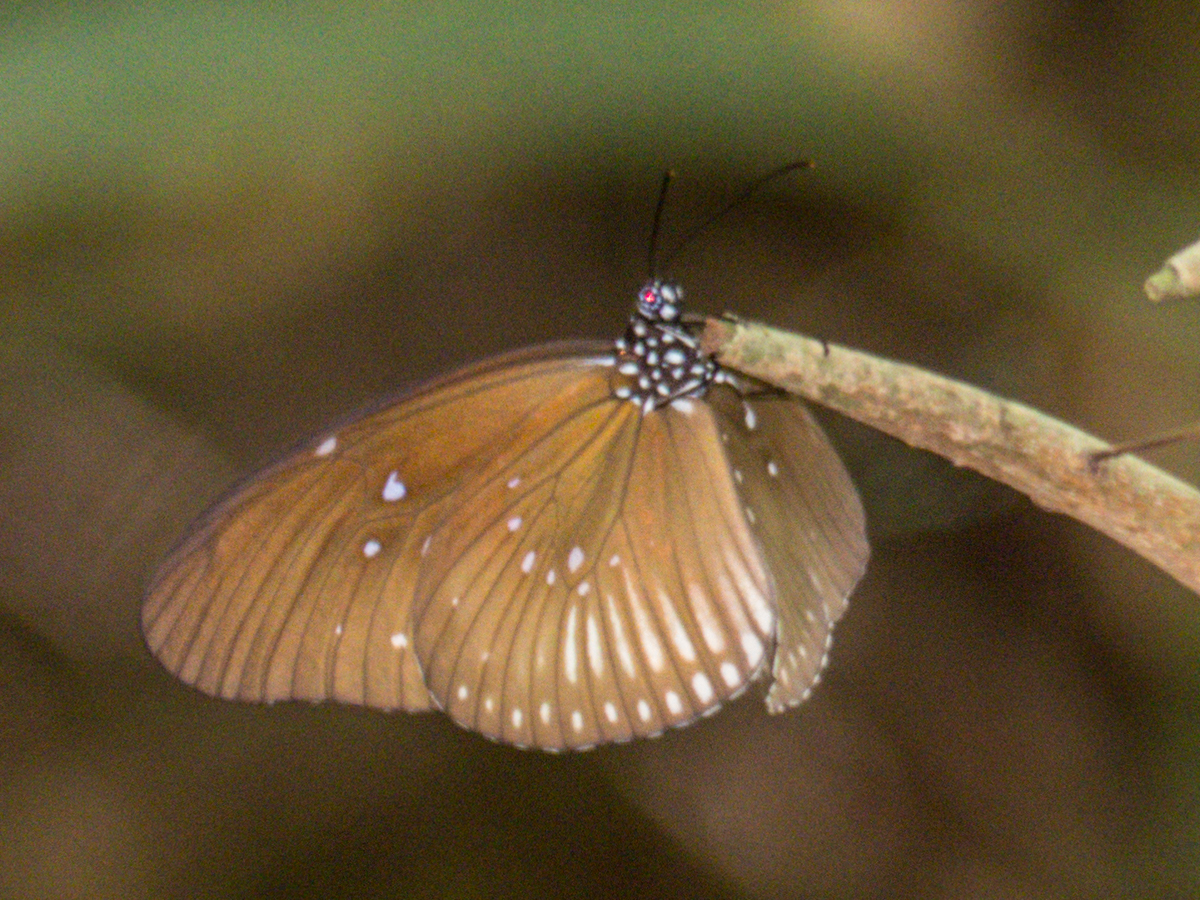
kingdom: Animalia
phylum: Arthropoda
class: Insecta
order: Lepidoptera
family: Nymphalidae
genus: Euploea
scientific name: Euploea eyndhovii
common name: Striped black crow butterfly
